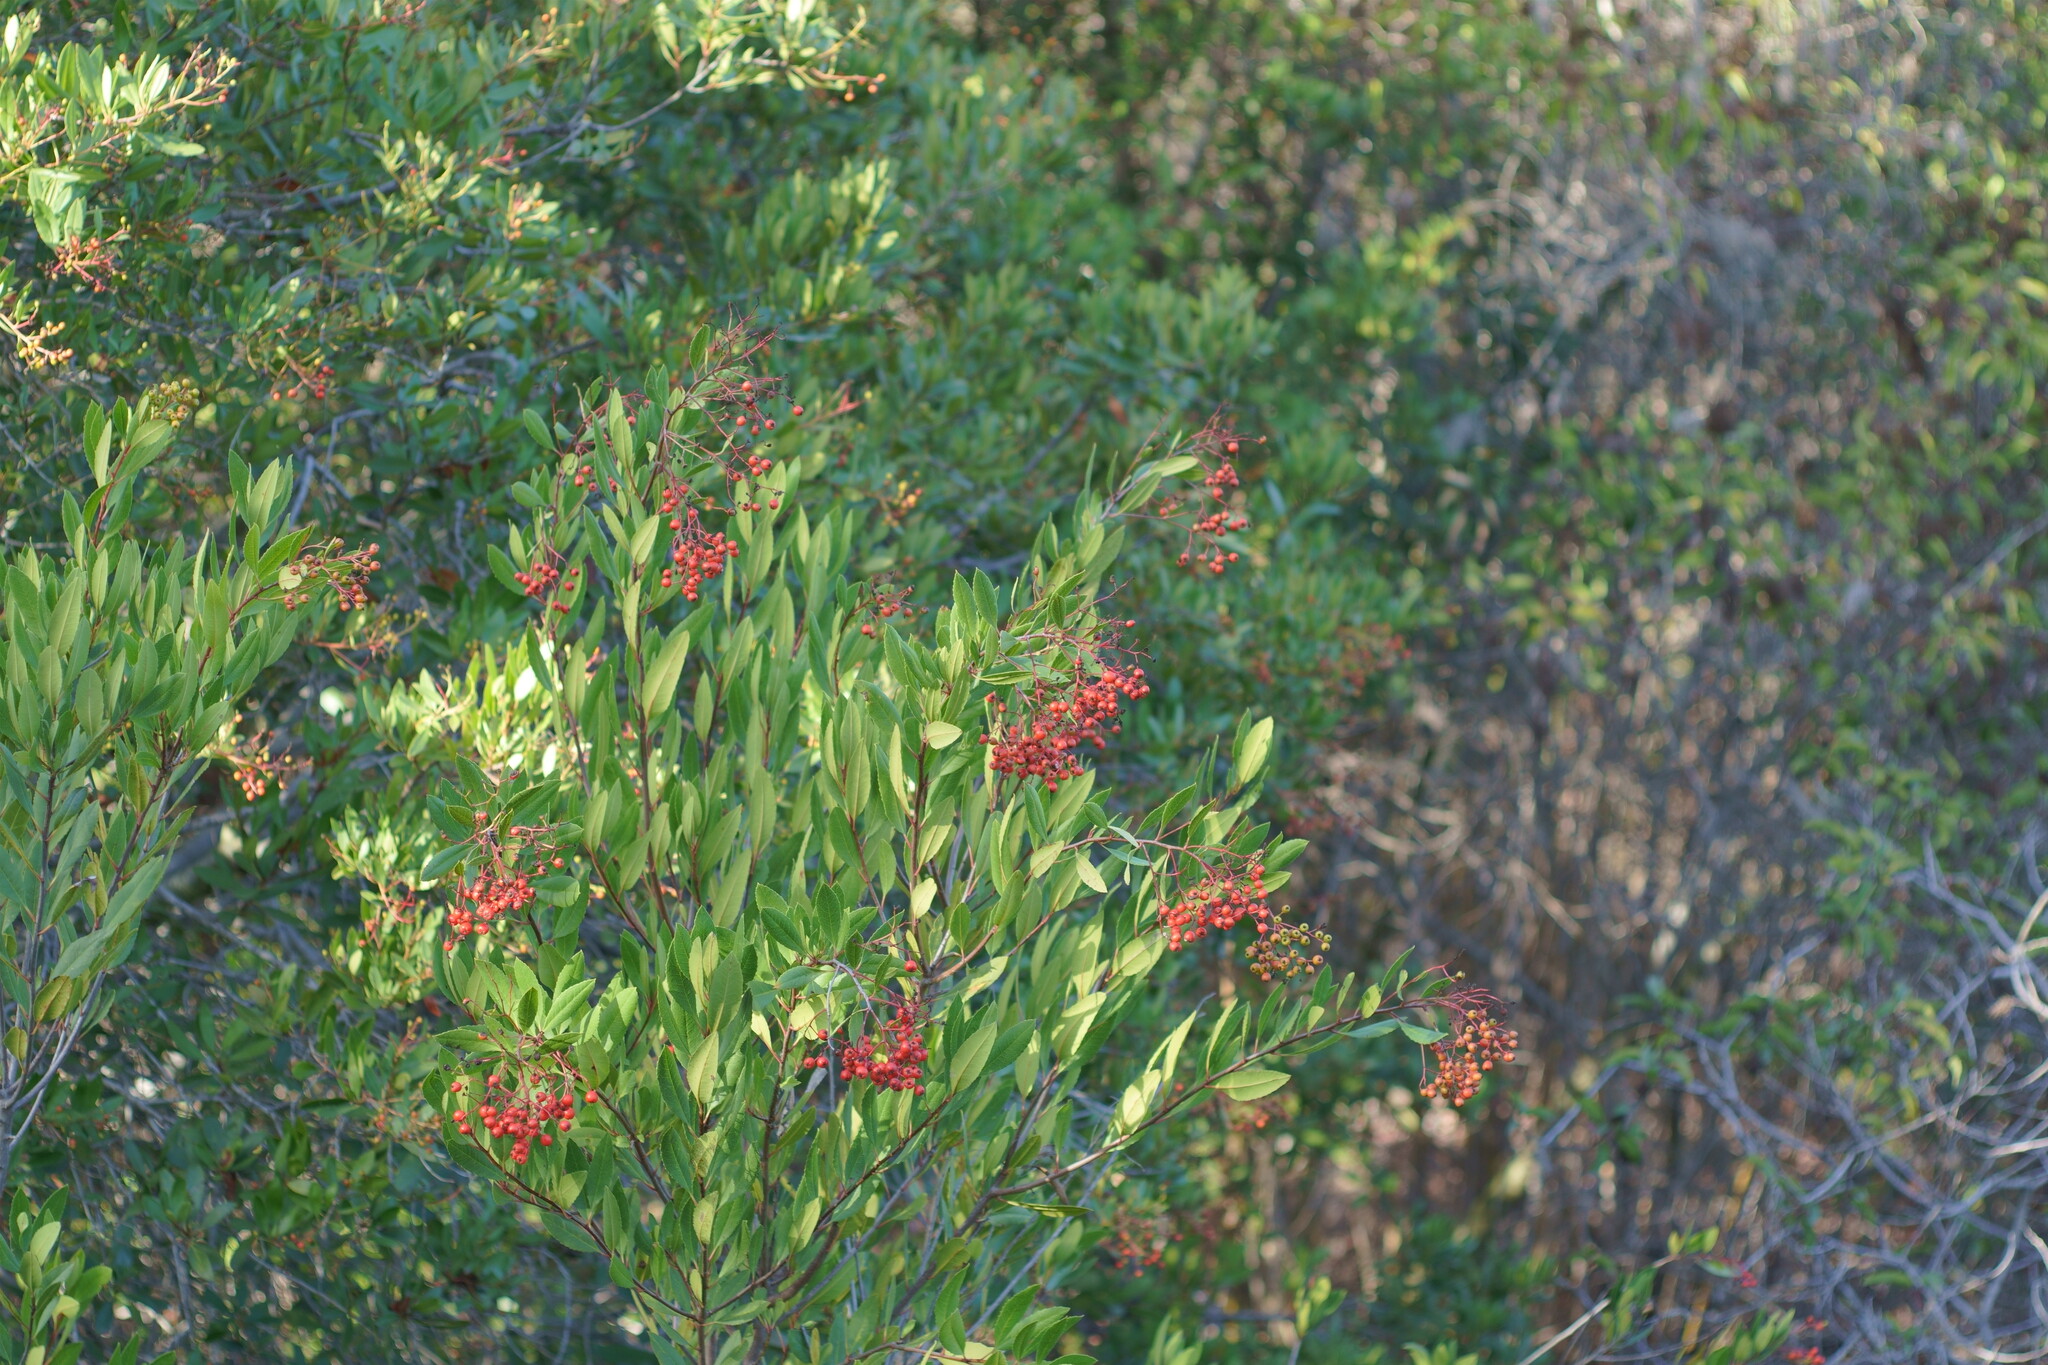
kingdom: Plantae
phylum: Tracheophyta
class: Magnoliopsida
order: Rosales
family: Rosaceae
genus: Heteromeles
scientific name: Heteromeles arbutifolia
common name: California-holly
